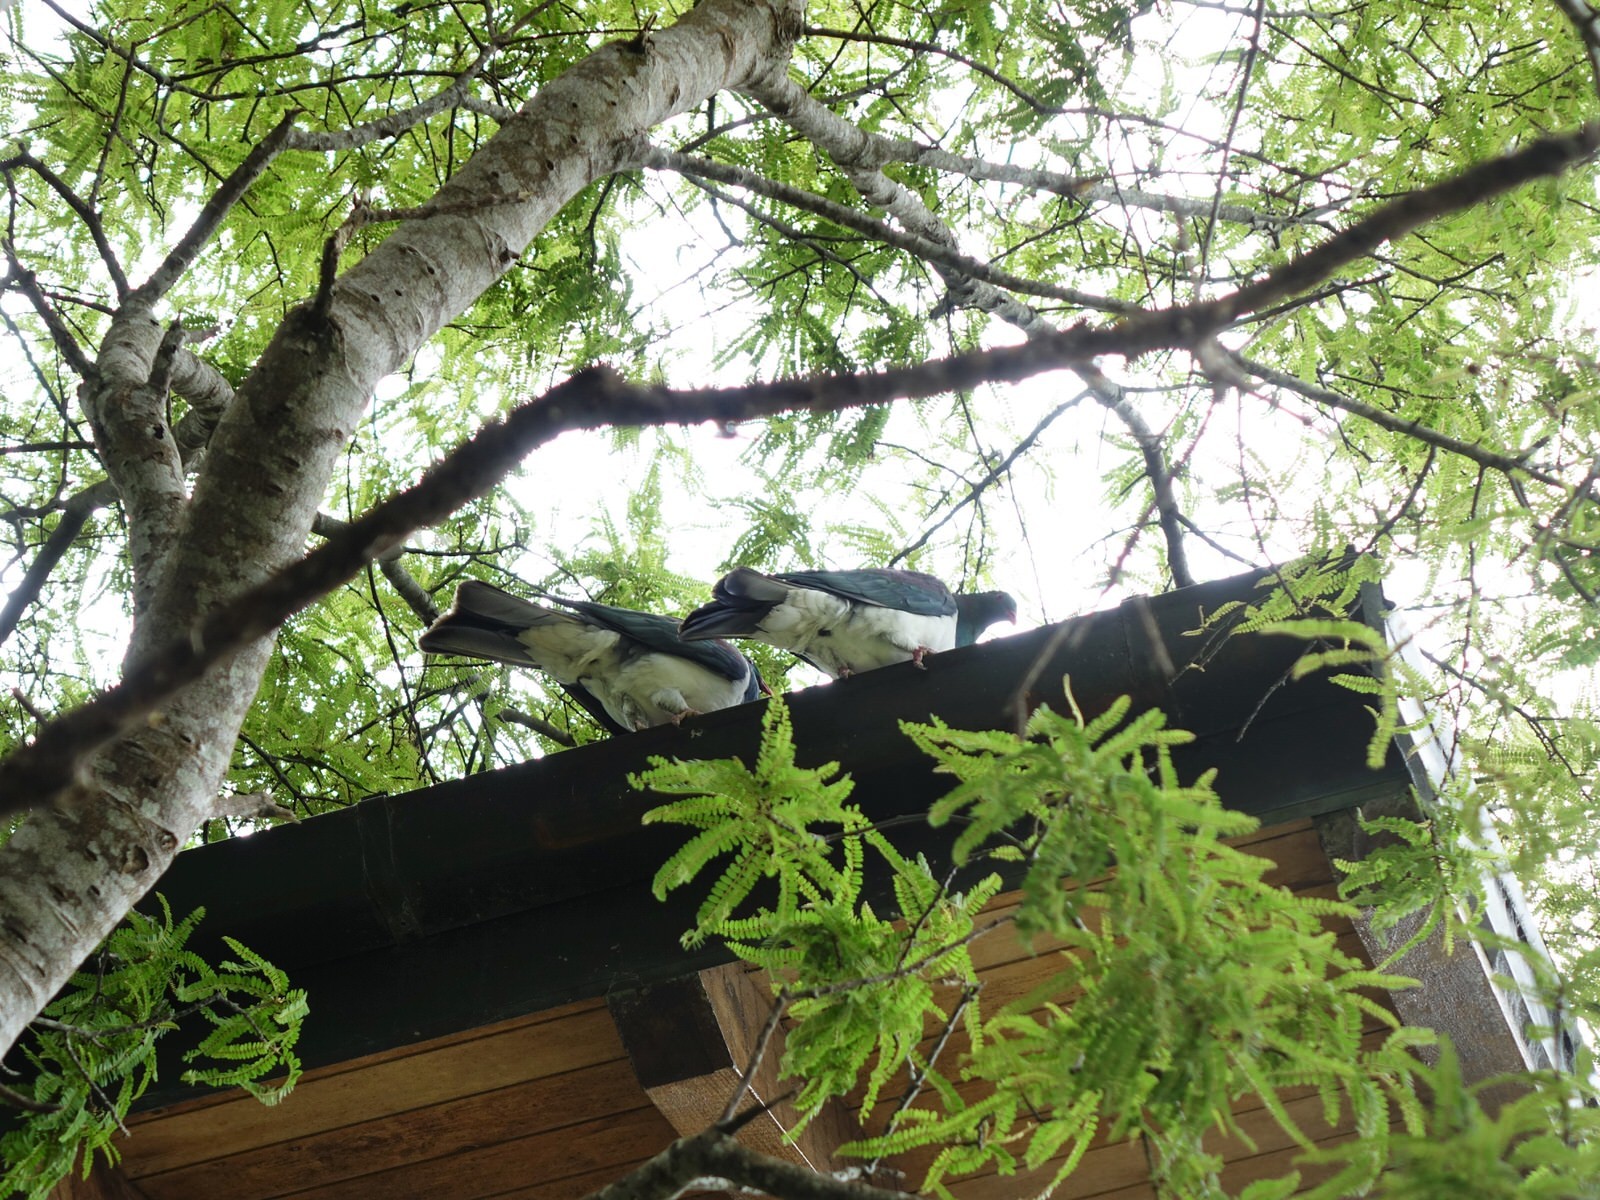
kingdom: Animalia
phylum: Chordata
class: Aves
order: Columbiformes
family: Columbidae
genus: Hemiphaga
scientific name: Hemiphaga novaeseelandiae
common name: New zealand pigeon
